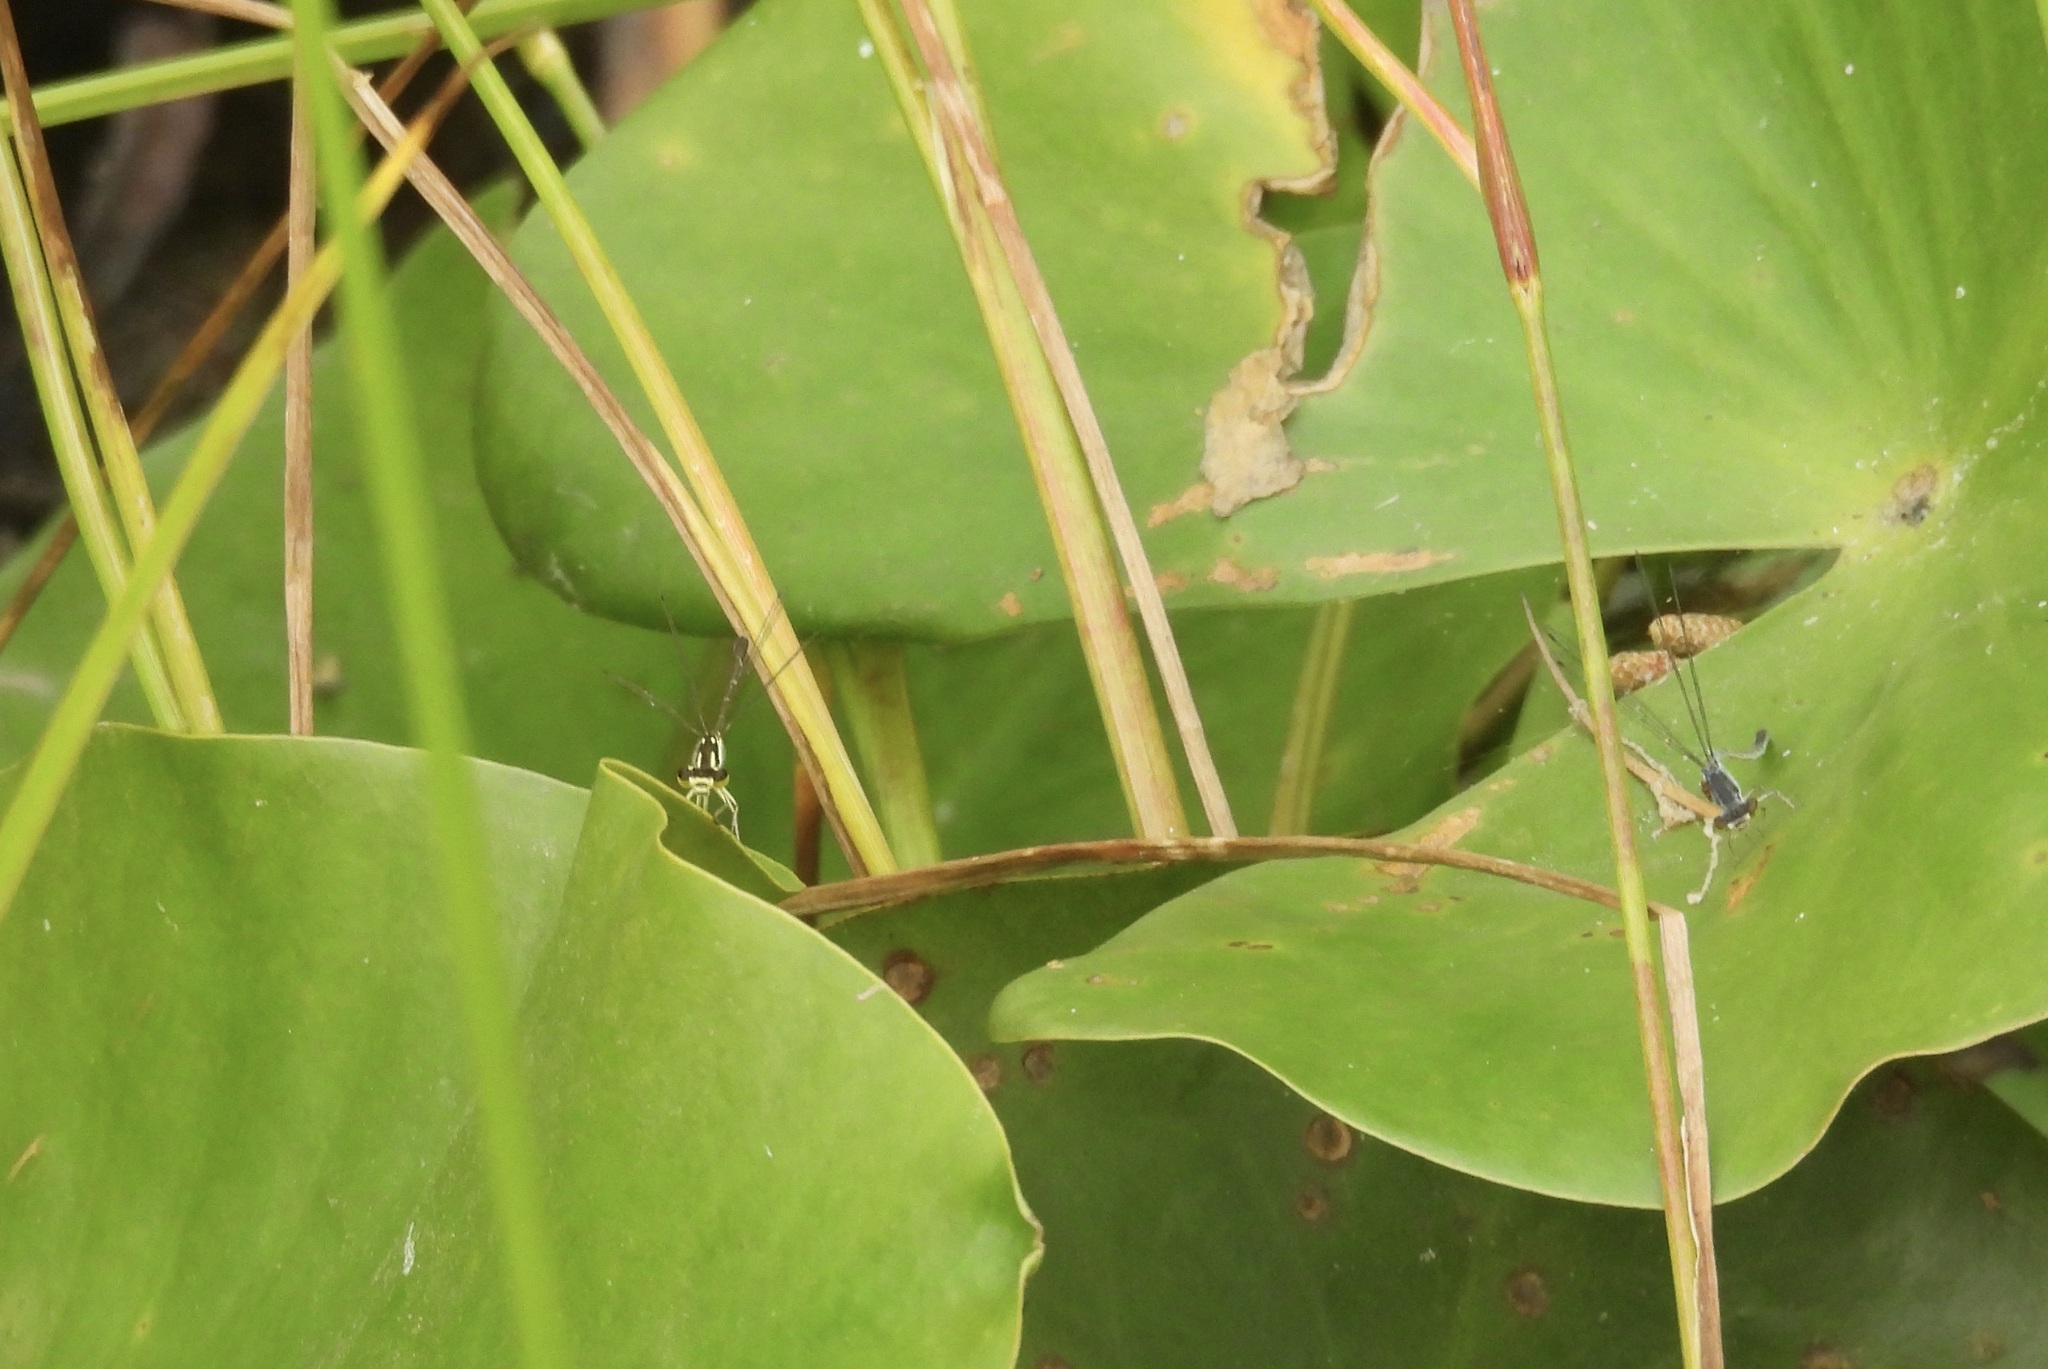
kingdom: Animalia
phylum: Arthropoda
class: Insecta
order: Odonata
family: Coenagrionidae
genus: Ischnura
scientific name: Ischnura posita
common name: Fragile forktail
